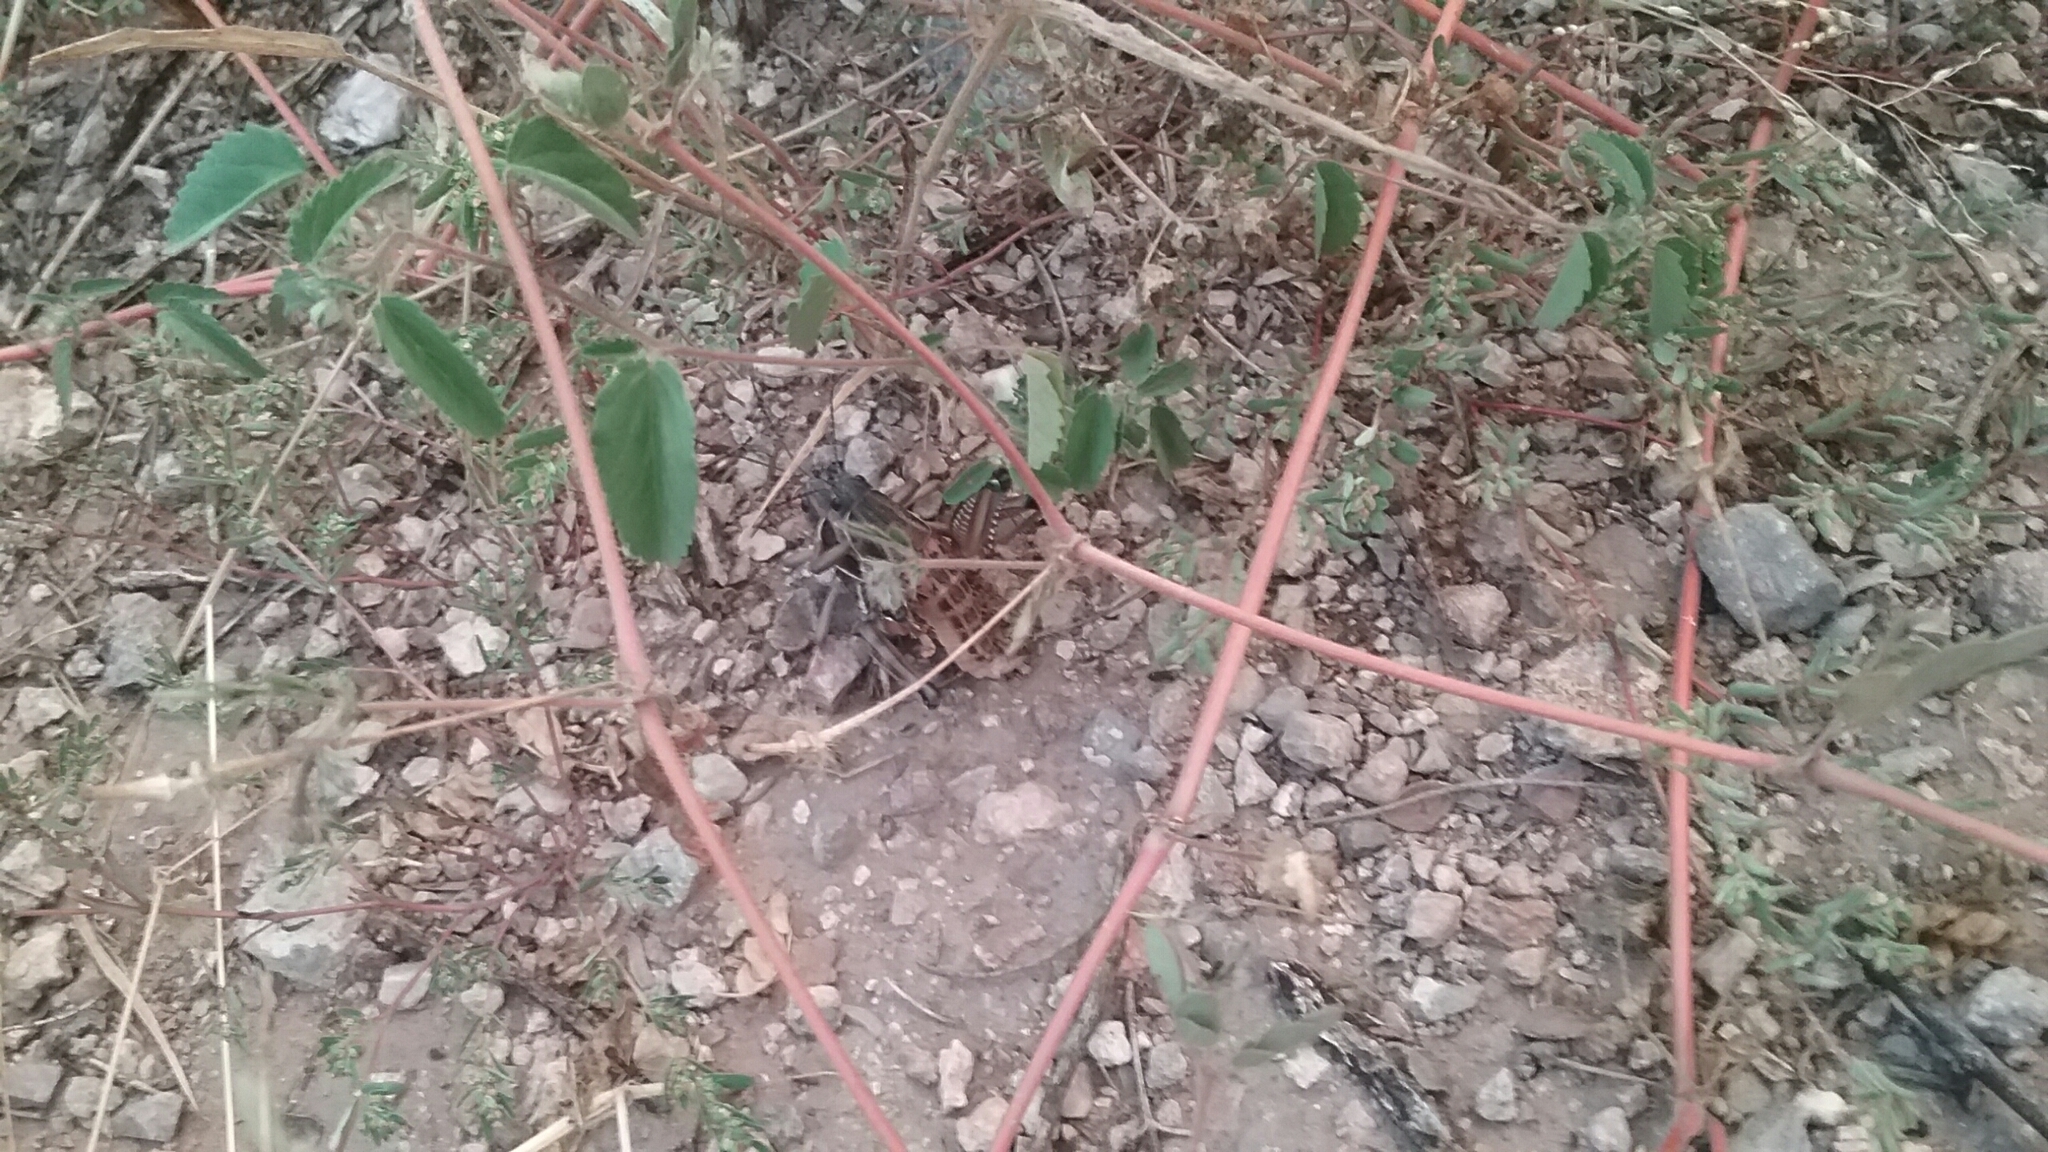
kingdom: Animalia
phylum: Arthropoda
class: Insecta
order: Orthoptera
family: Romaleidae
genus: Brachystola
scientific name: Brachystola magna
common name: Plains lubber grasshopper
